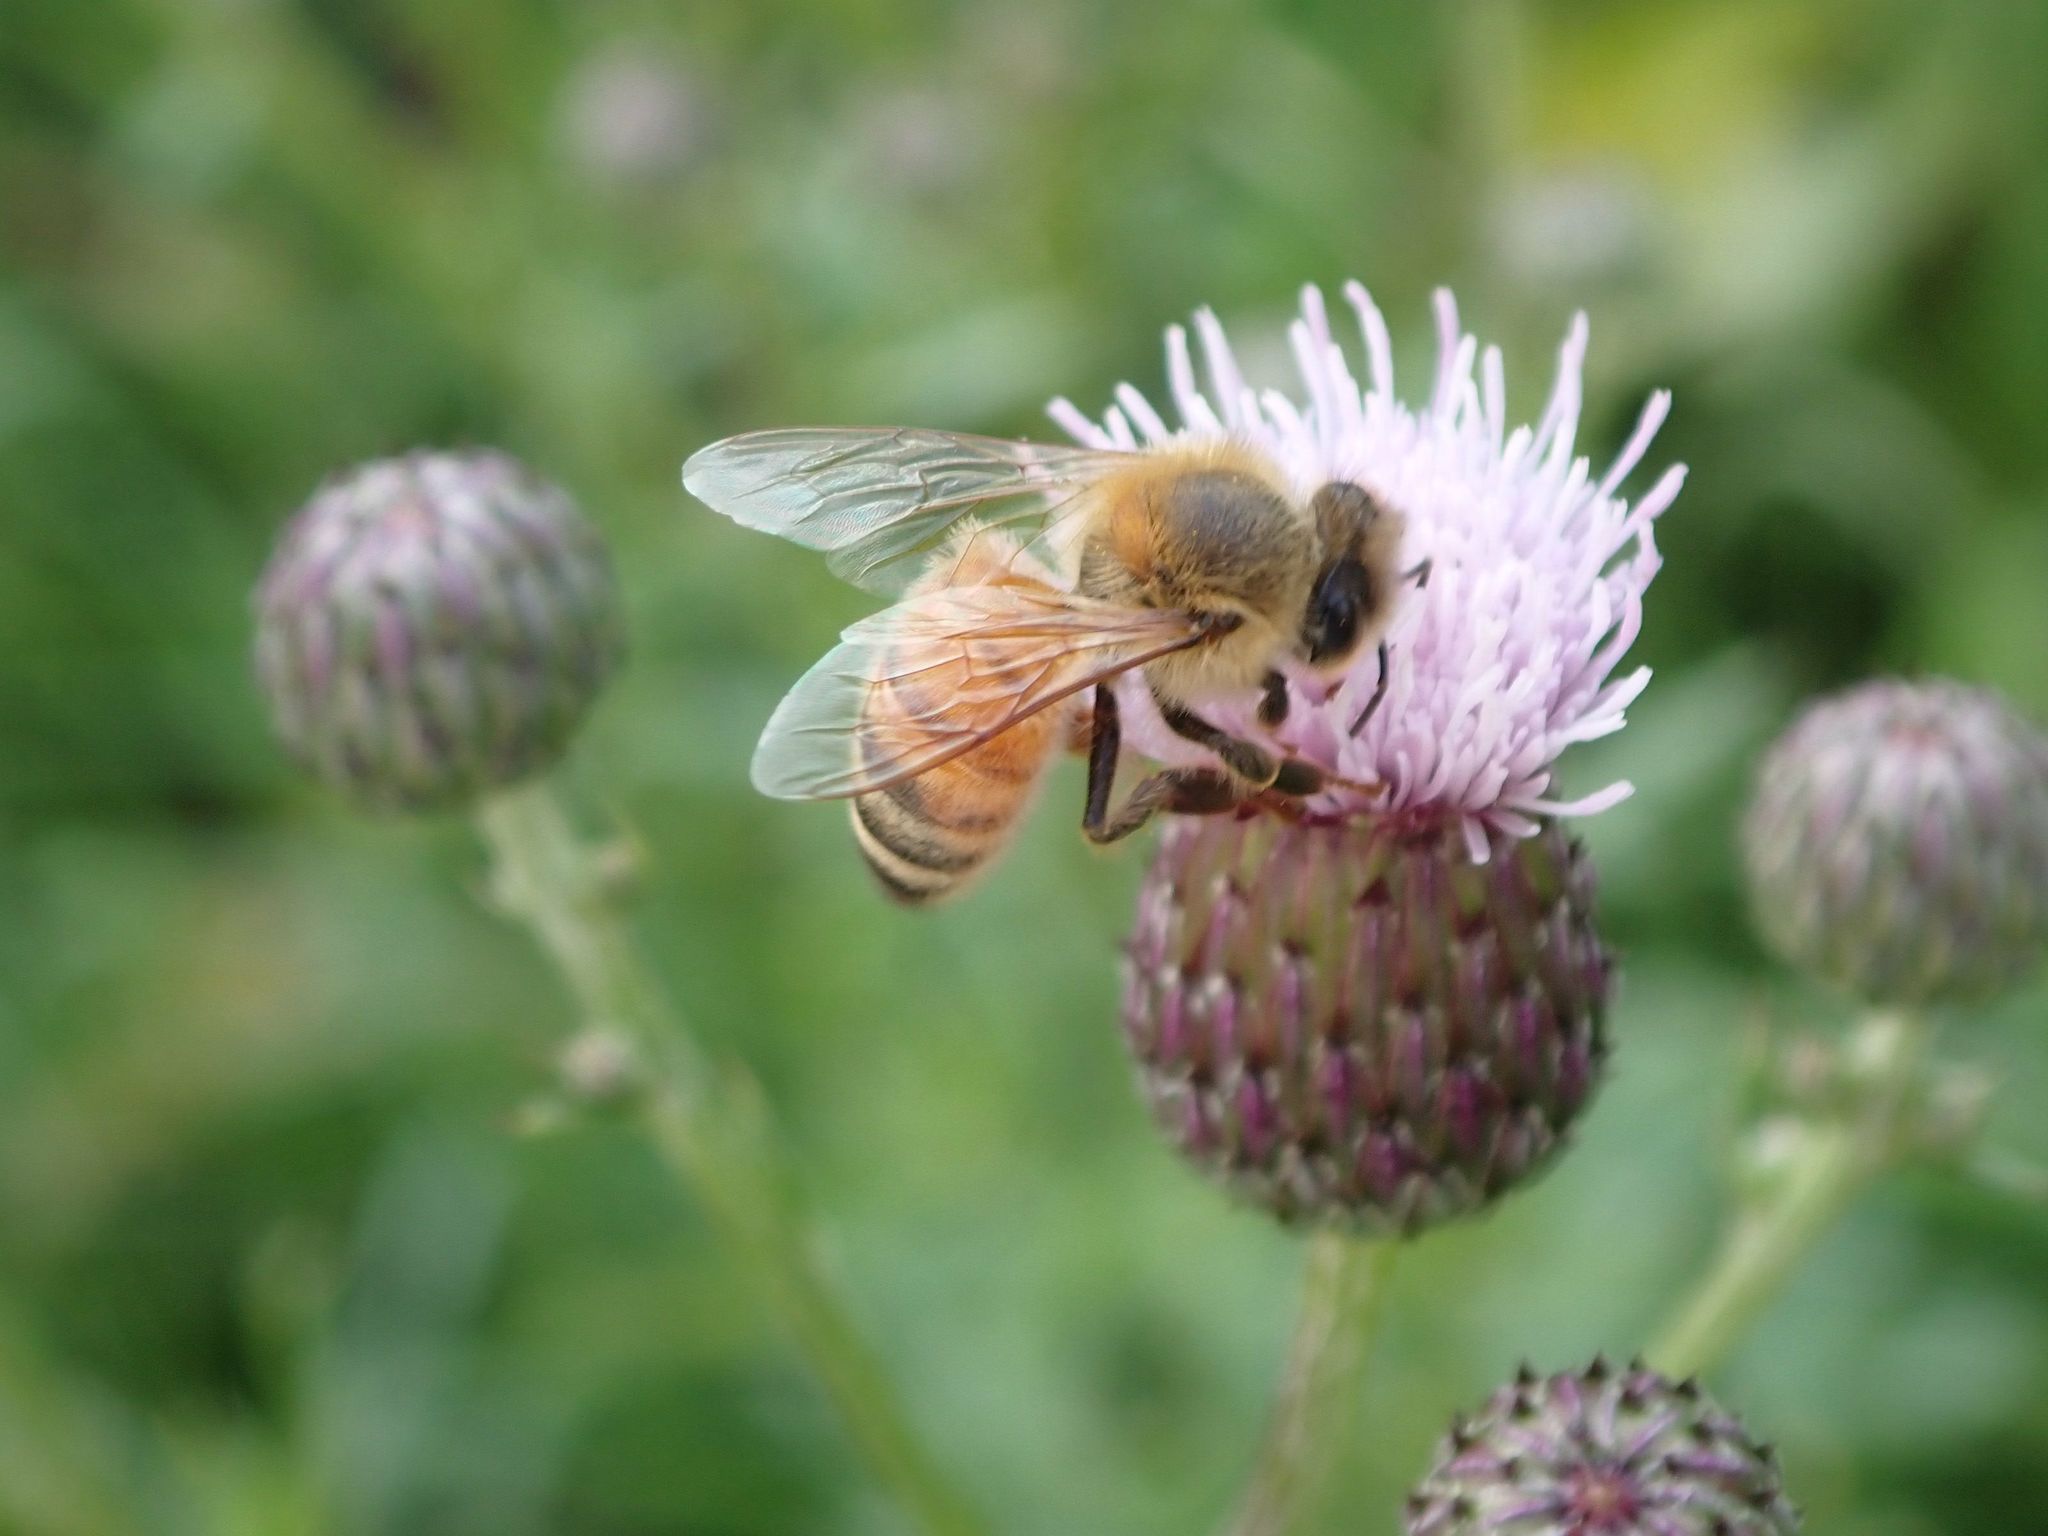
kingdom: Animalia
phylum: Arthropoda
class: Insecta
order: Hymenoptera
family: Apidae
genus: Apis
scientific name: Apis mellifera
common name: Honey bee
